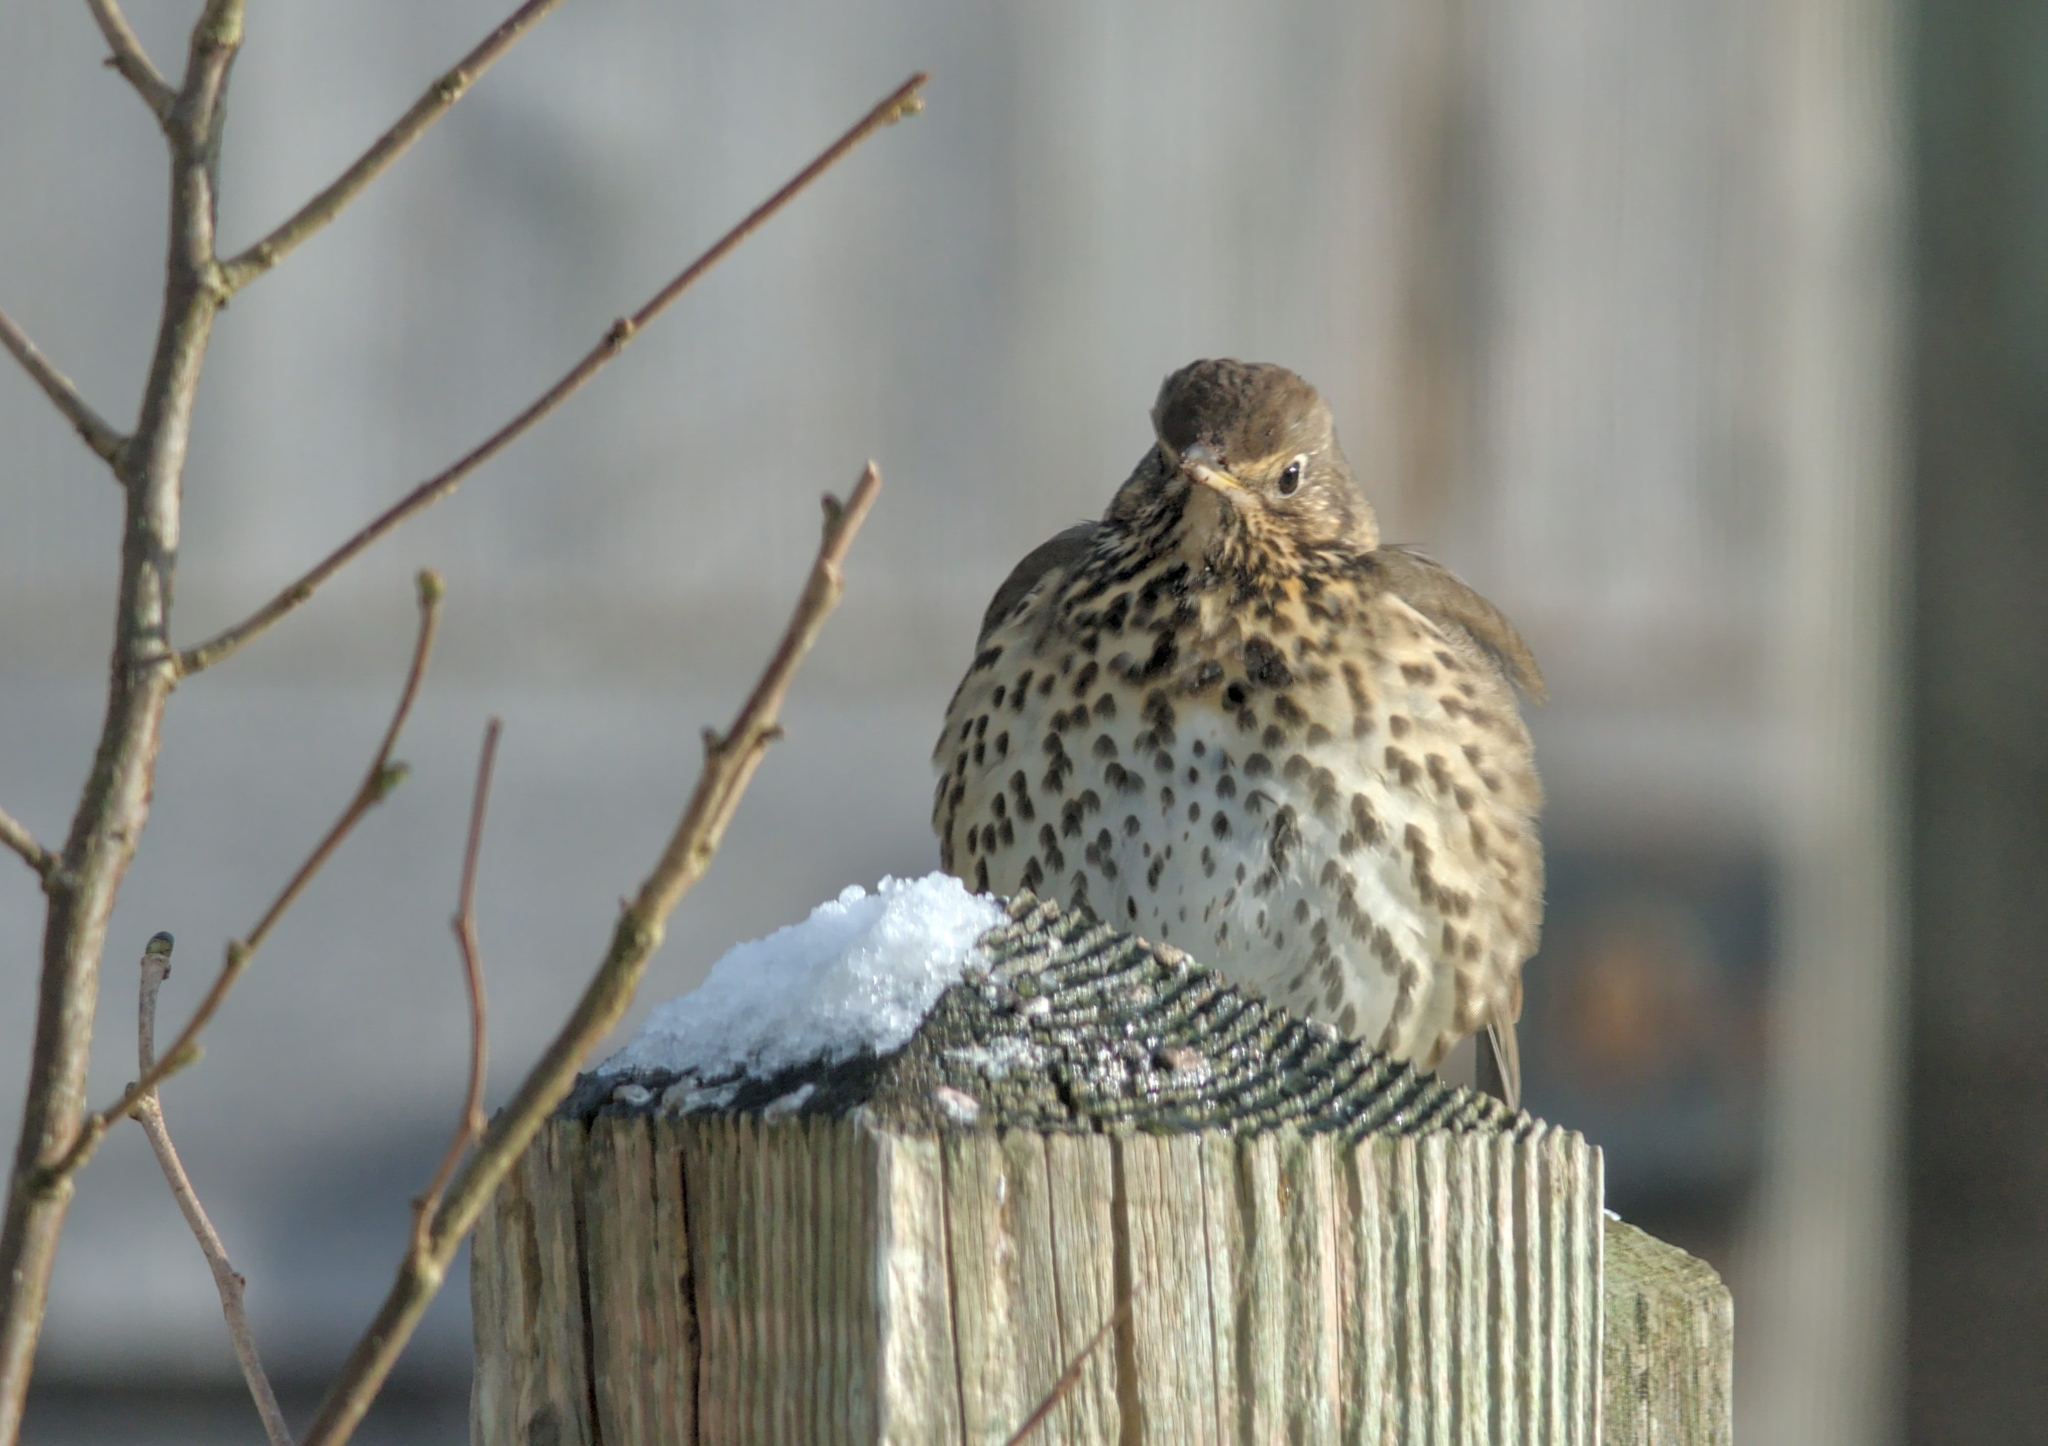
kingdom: Animalia
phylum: Chordata
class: Aves
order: Passeriformes
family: Turdidae
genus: Turdus
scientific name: Turdus philomelos
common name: Song thrush
